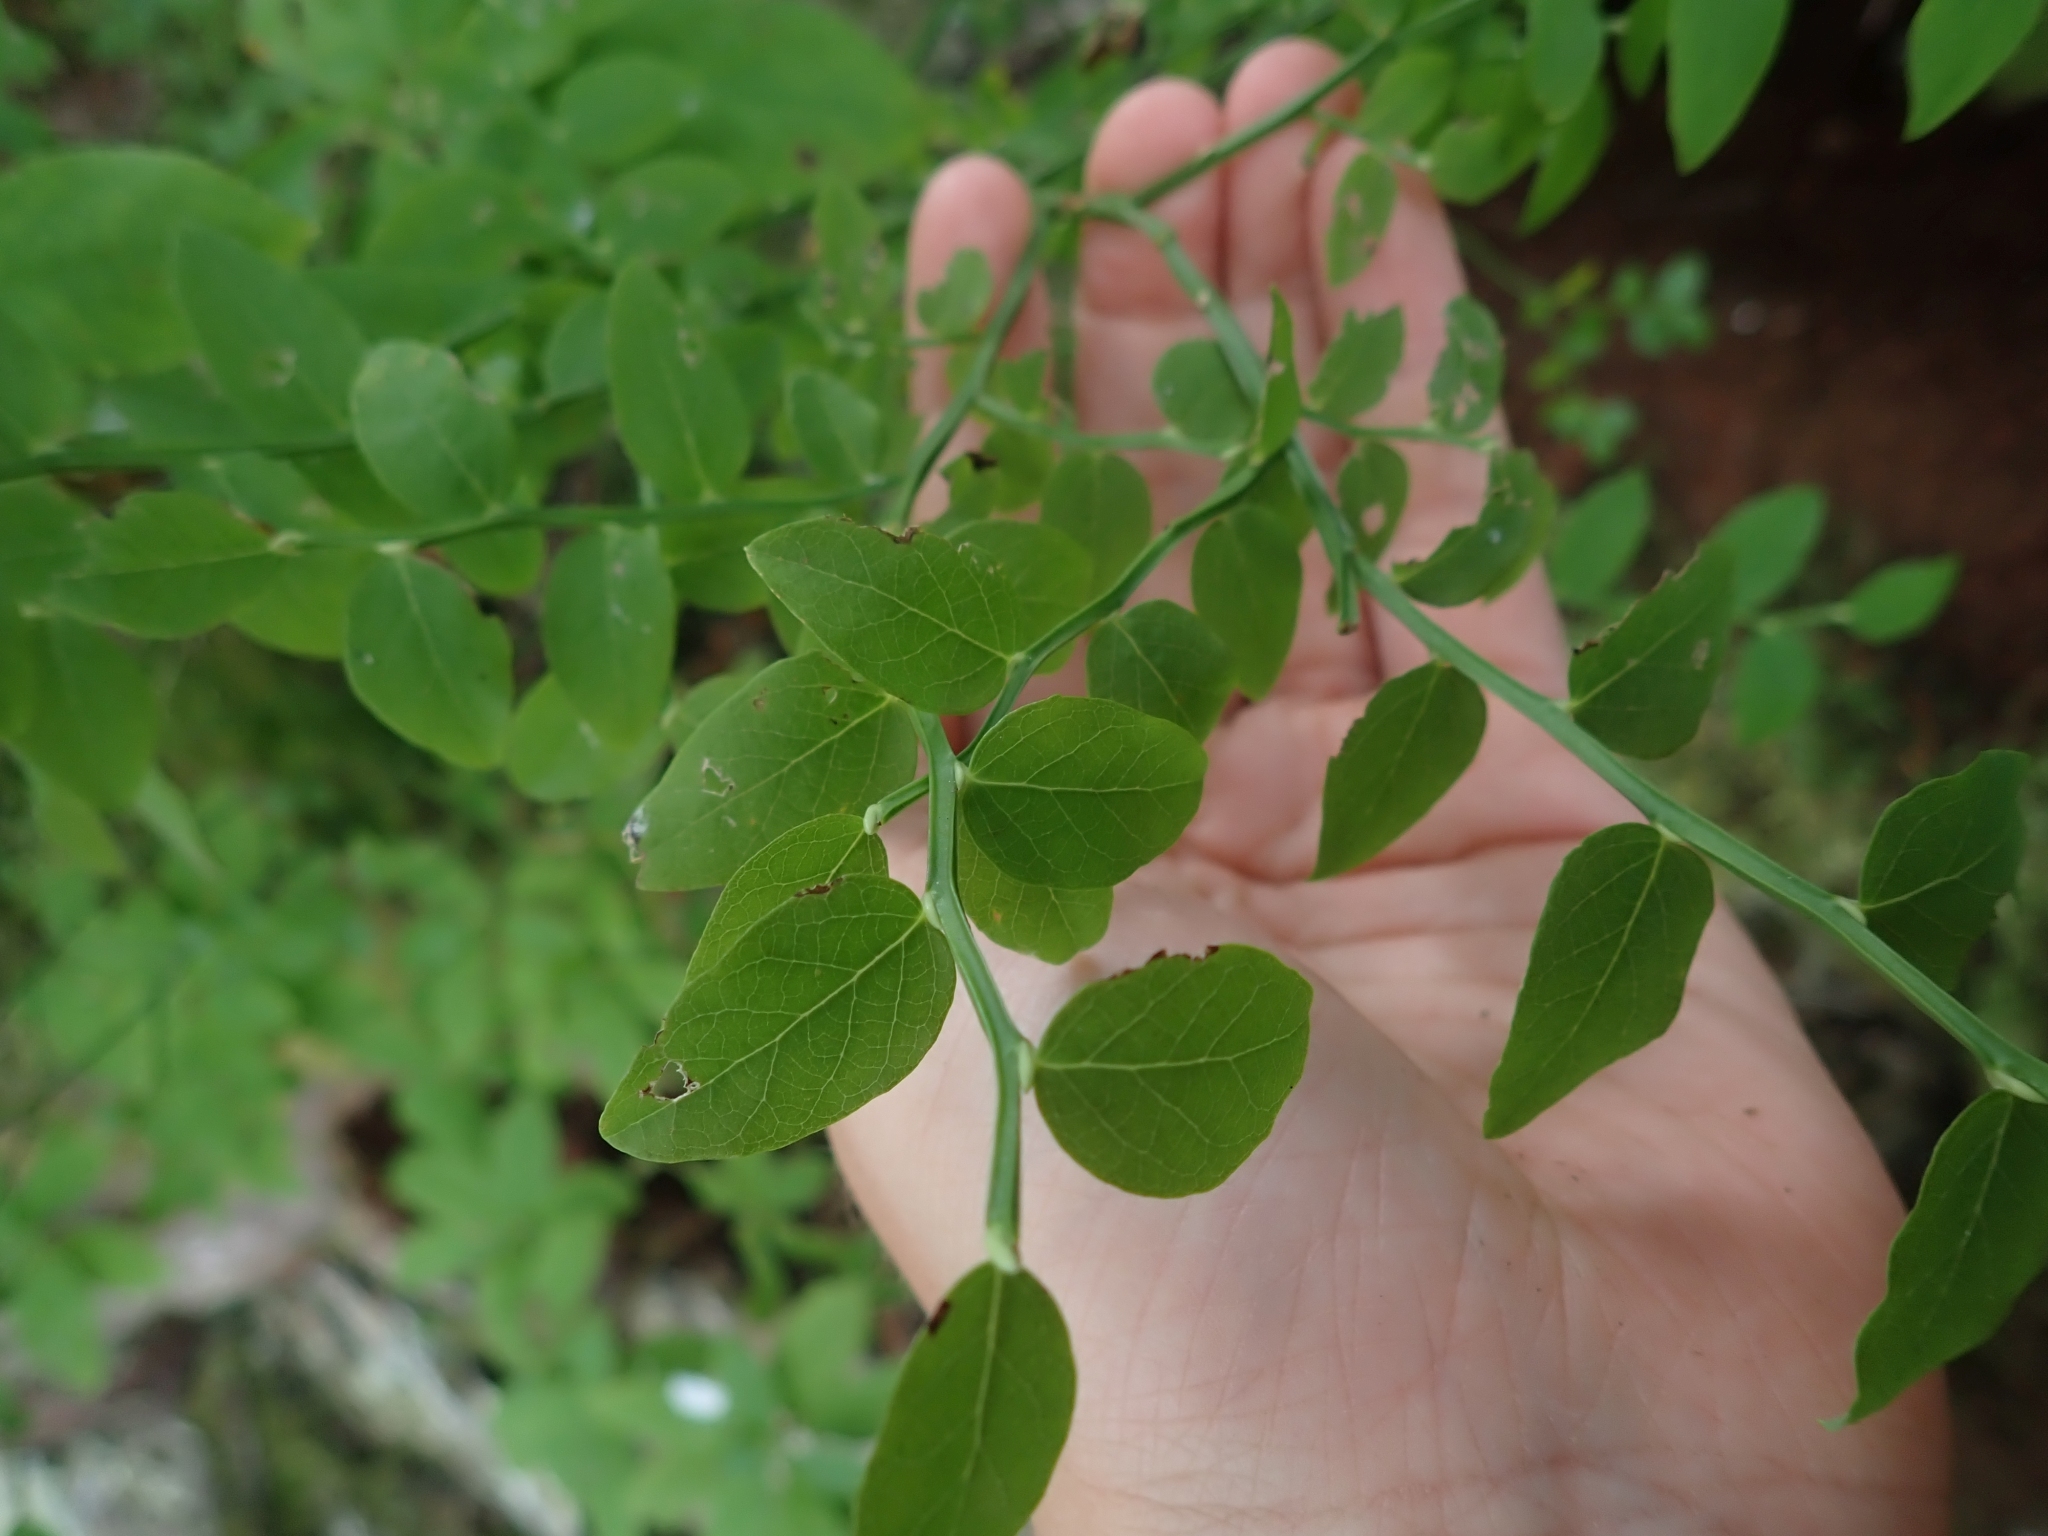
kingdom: Plantae
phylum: Tracheophyta
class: Magnoliopsida
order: Ericales
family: Ericaceae
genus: Vaccinium
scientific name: Vaccinium parvifolium
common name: Red-huckleberry
